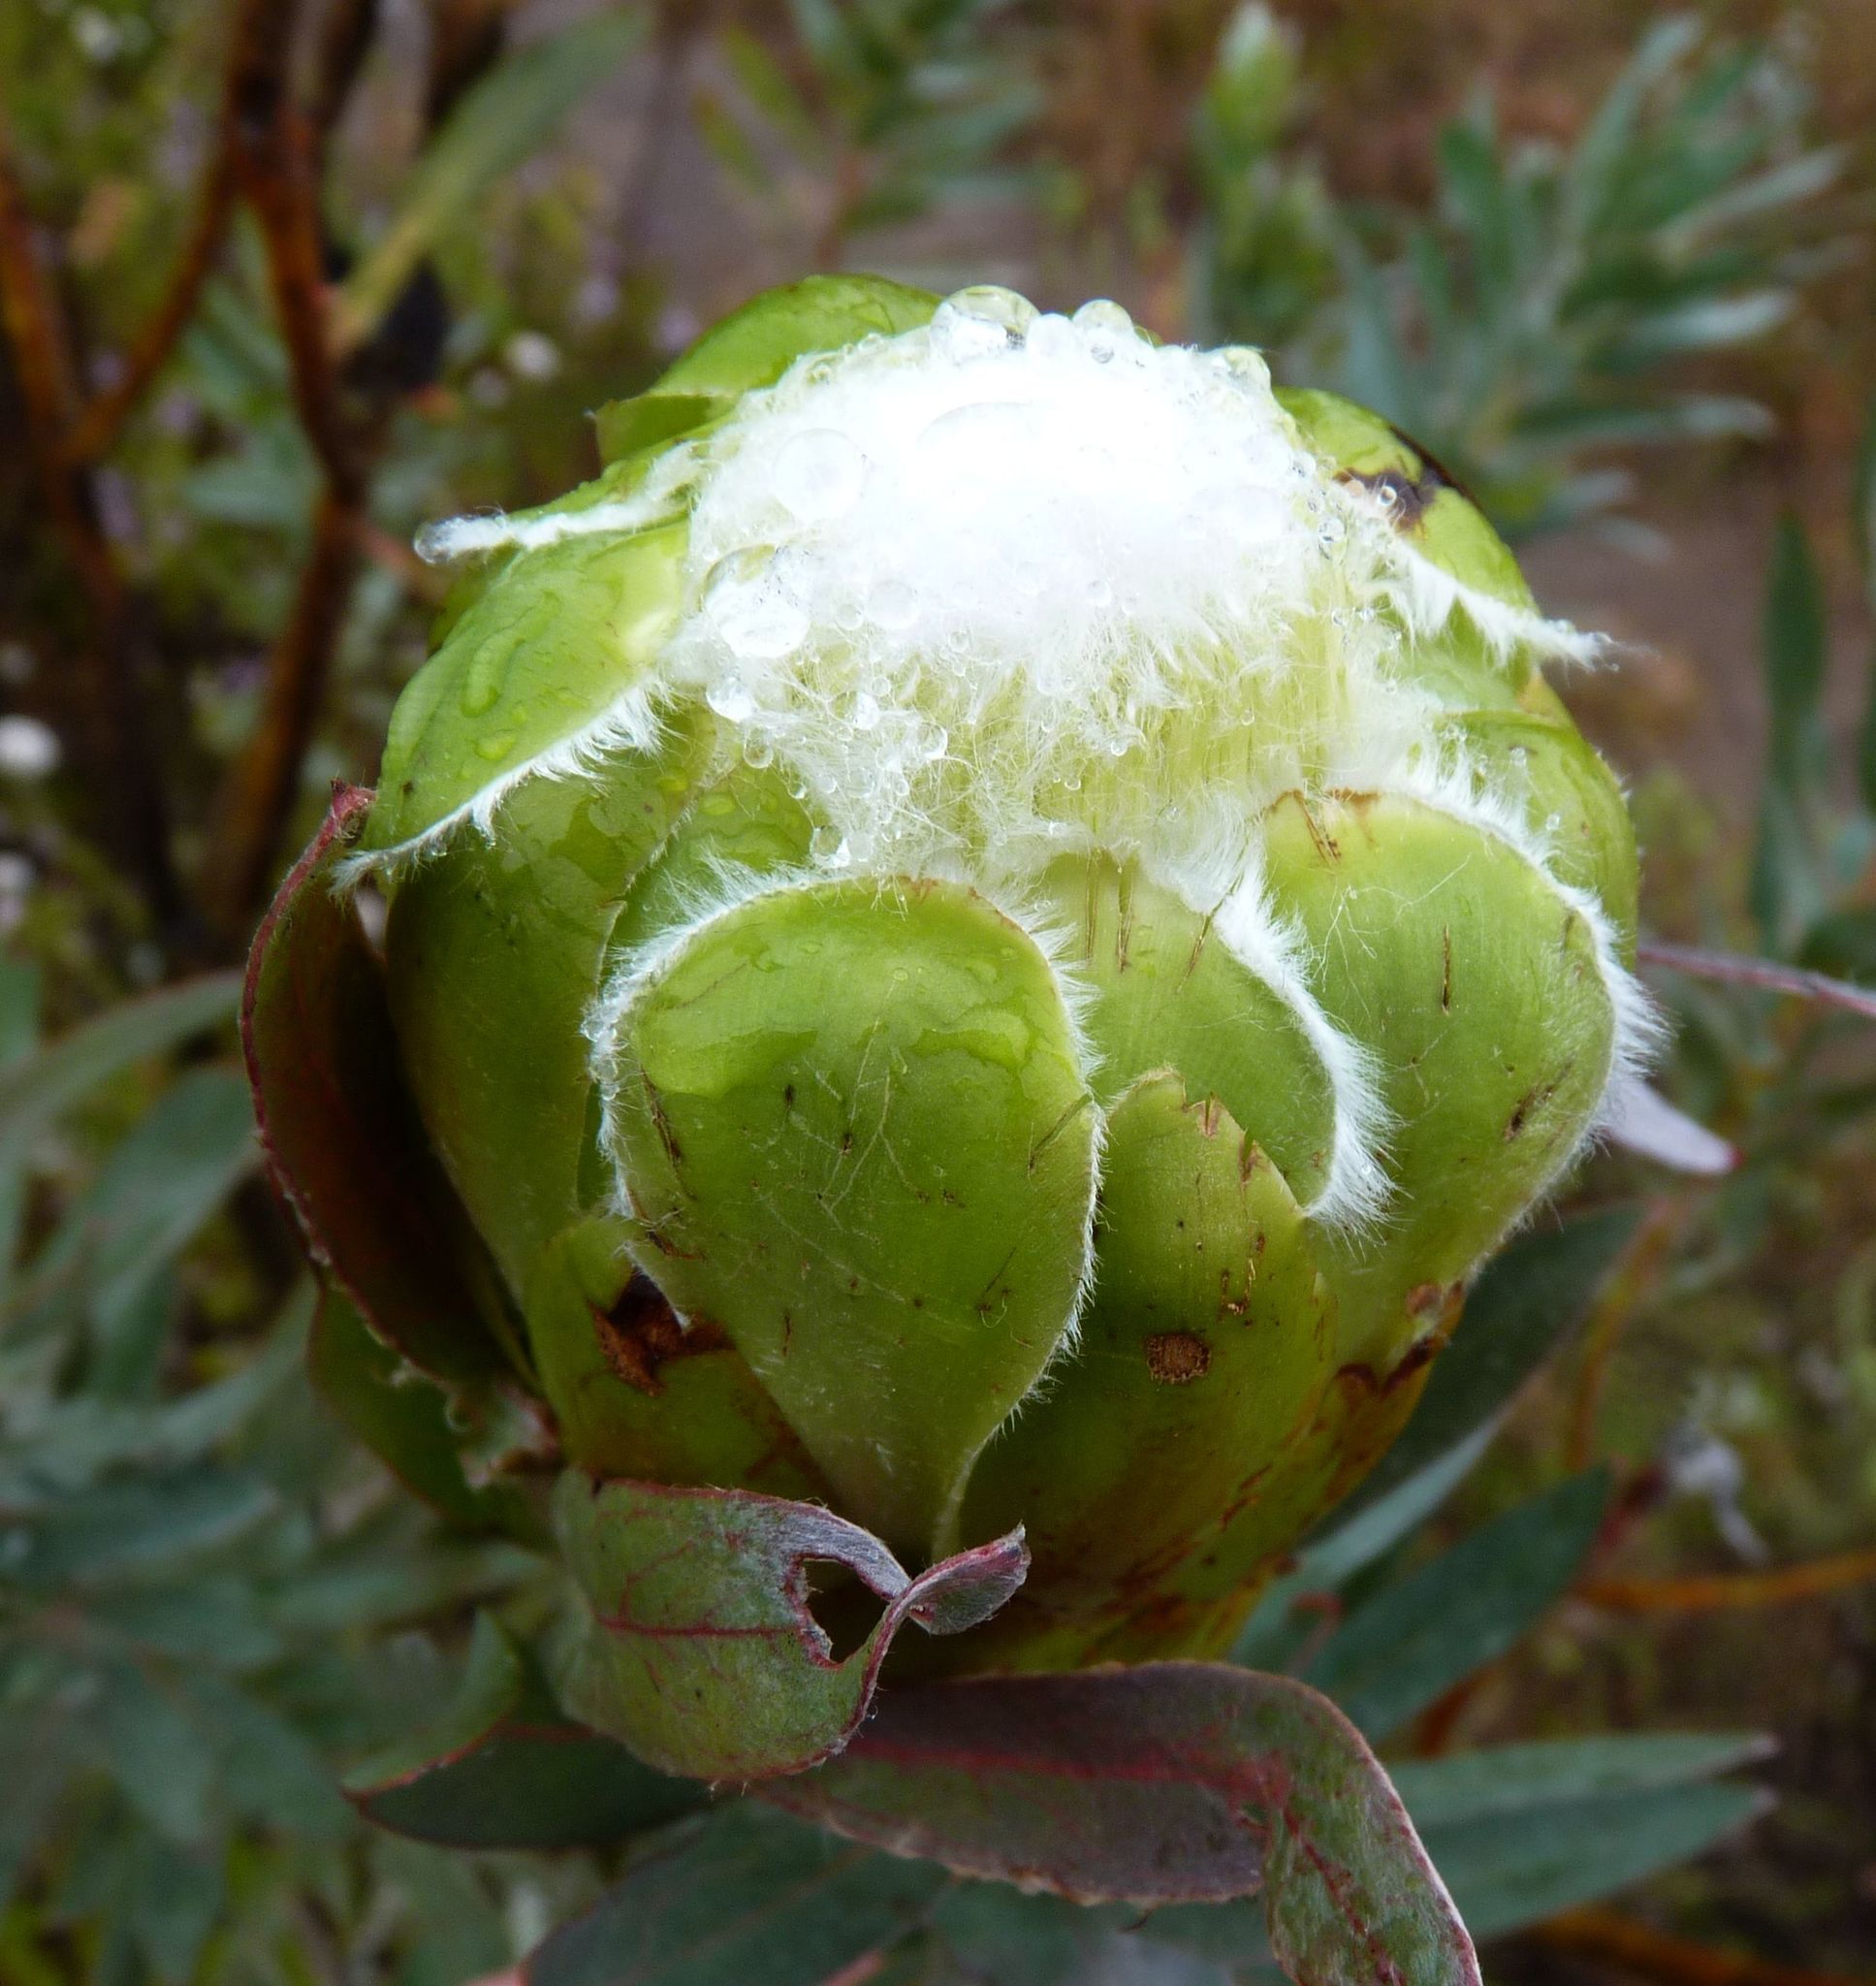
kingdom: Plantae
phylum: Tracheophyta
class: Magnoliopsida
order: Proteales
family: Proteaceae
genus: Protea
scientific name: Protea coronata
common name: Green sugarbush
